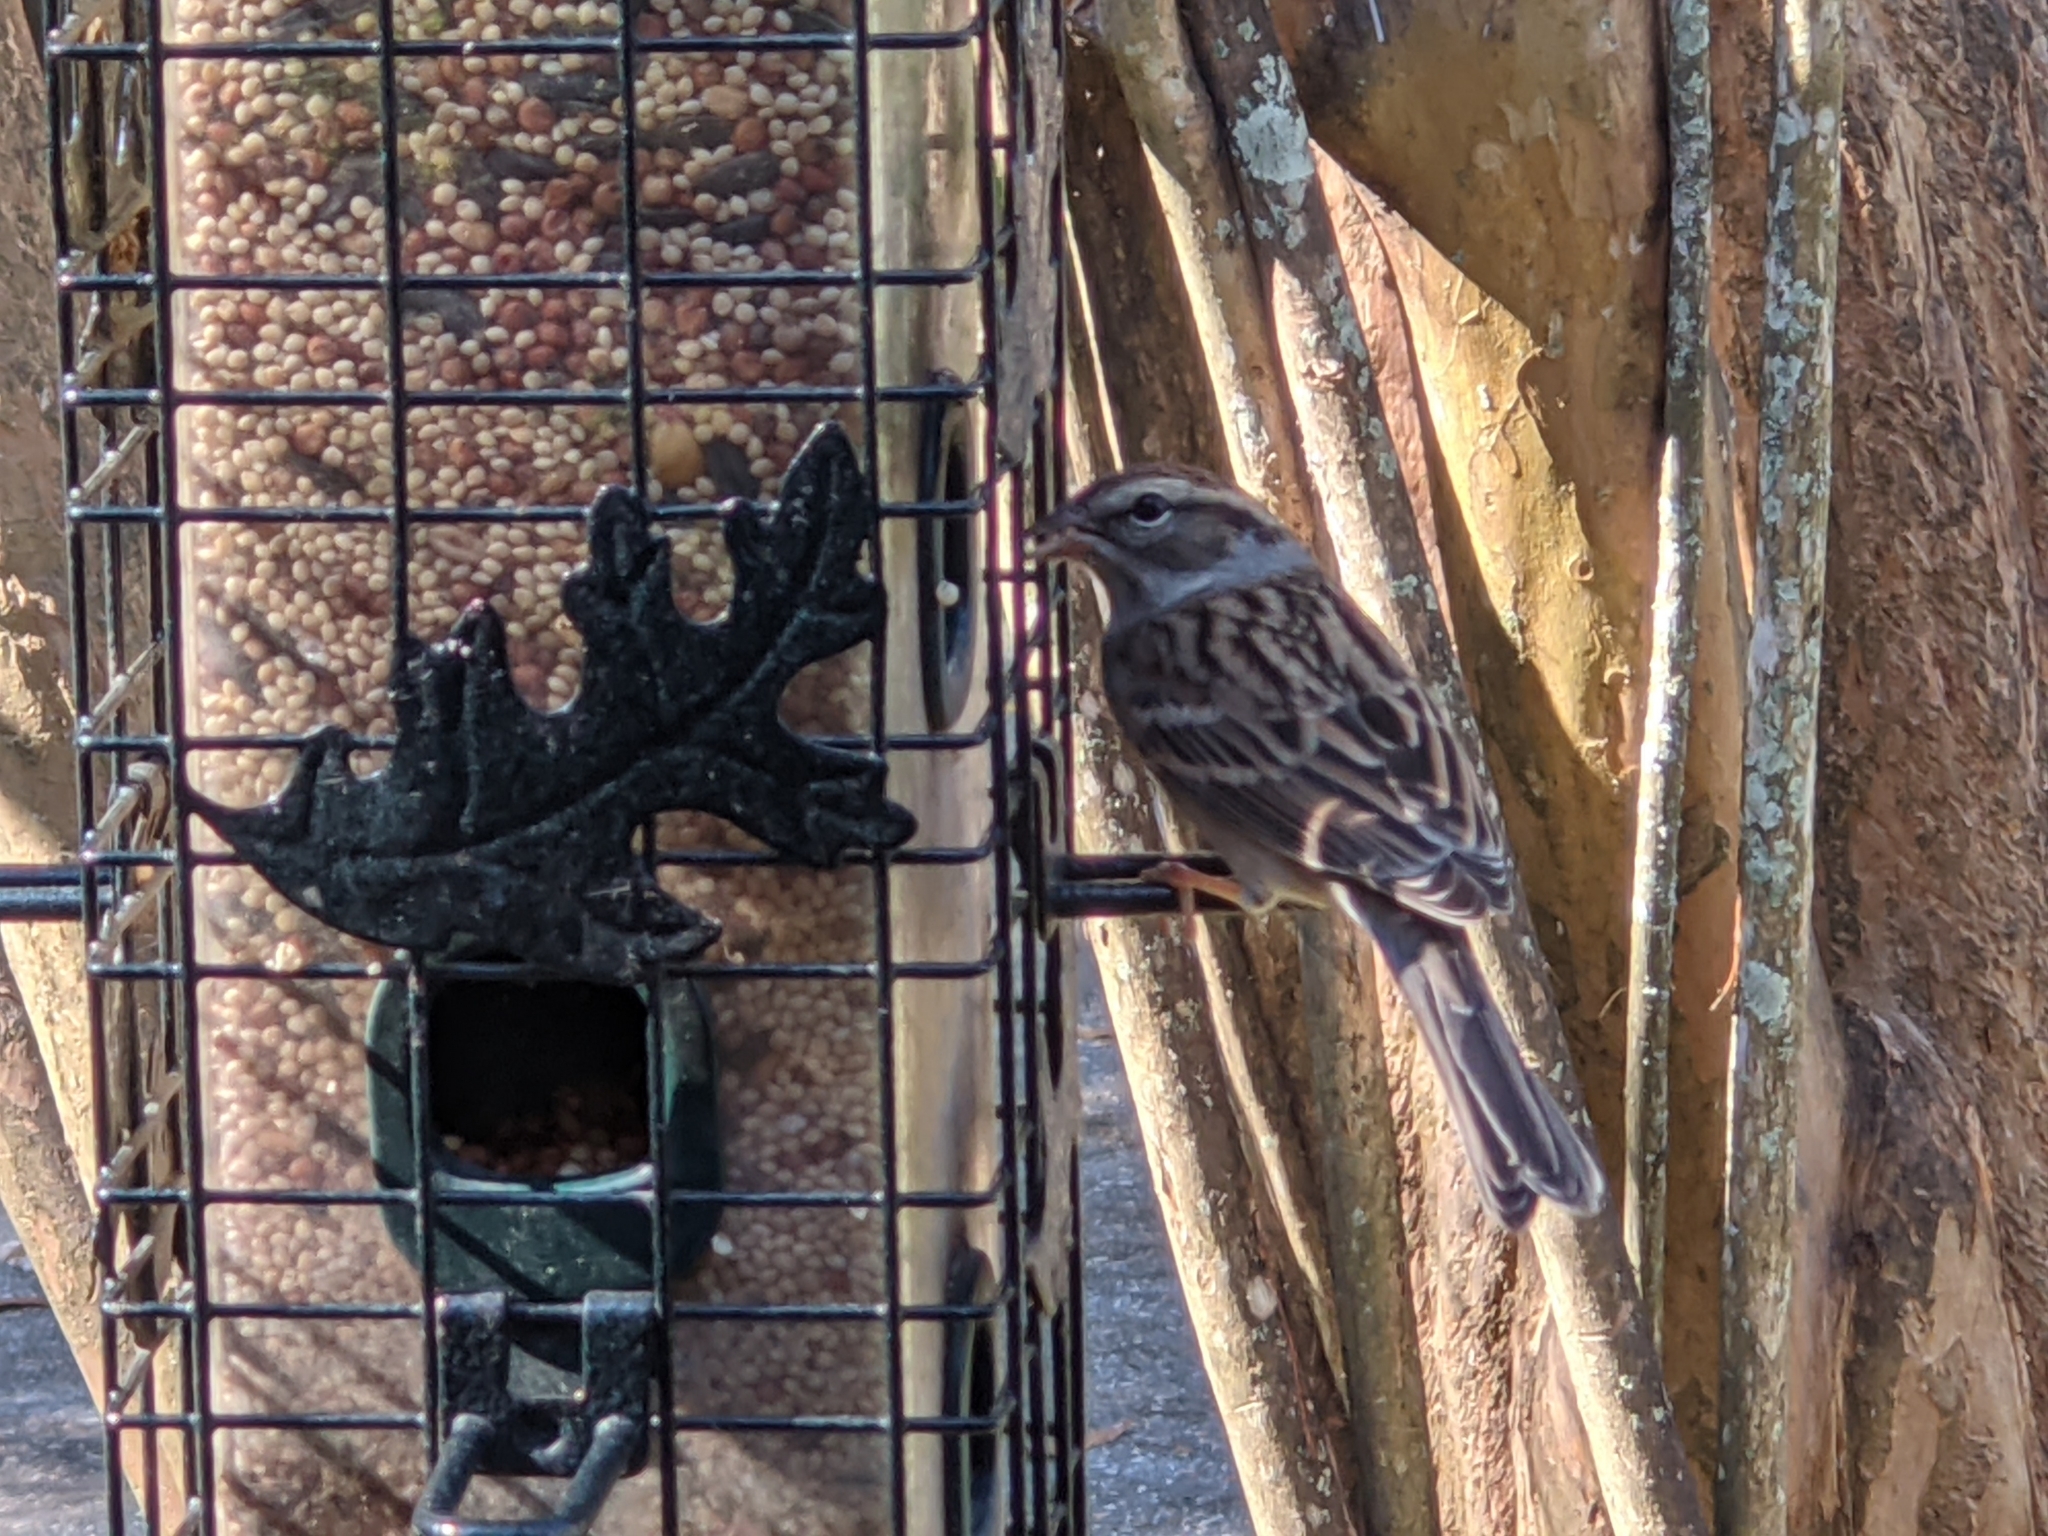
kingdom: Animalia
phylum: Chordata
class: Aves
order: Passeriformes
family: Passerellidae
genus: Spizella
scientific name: Spizella passerina
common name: Chipping sparrow
